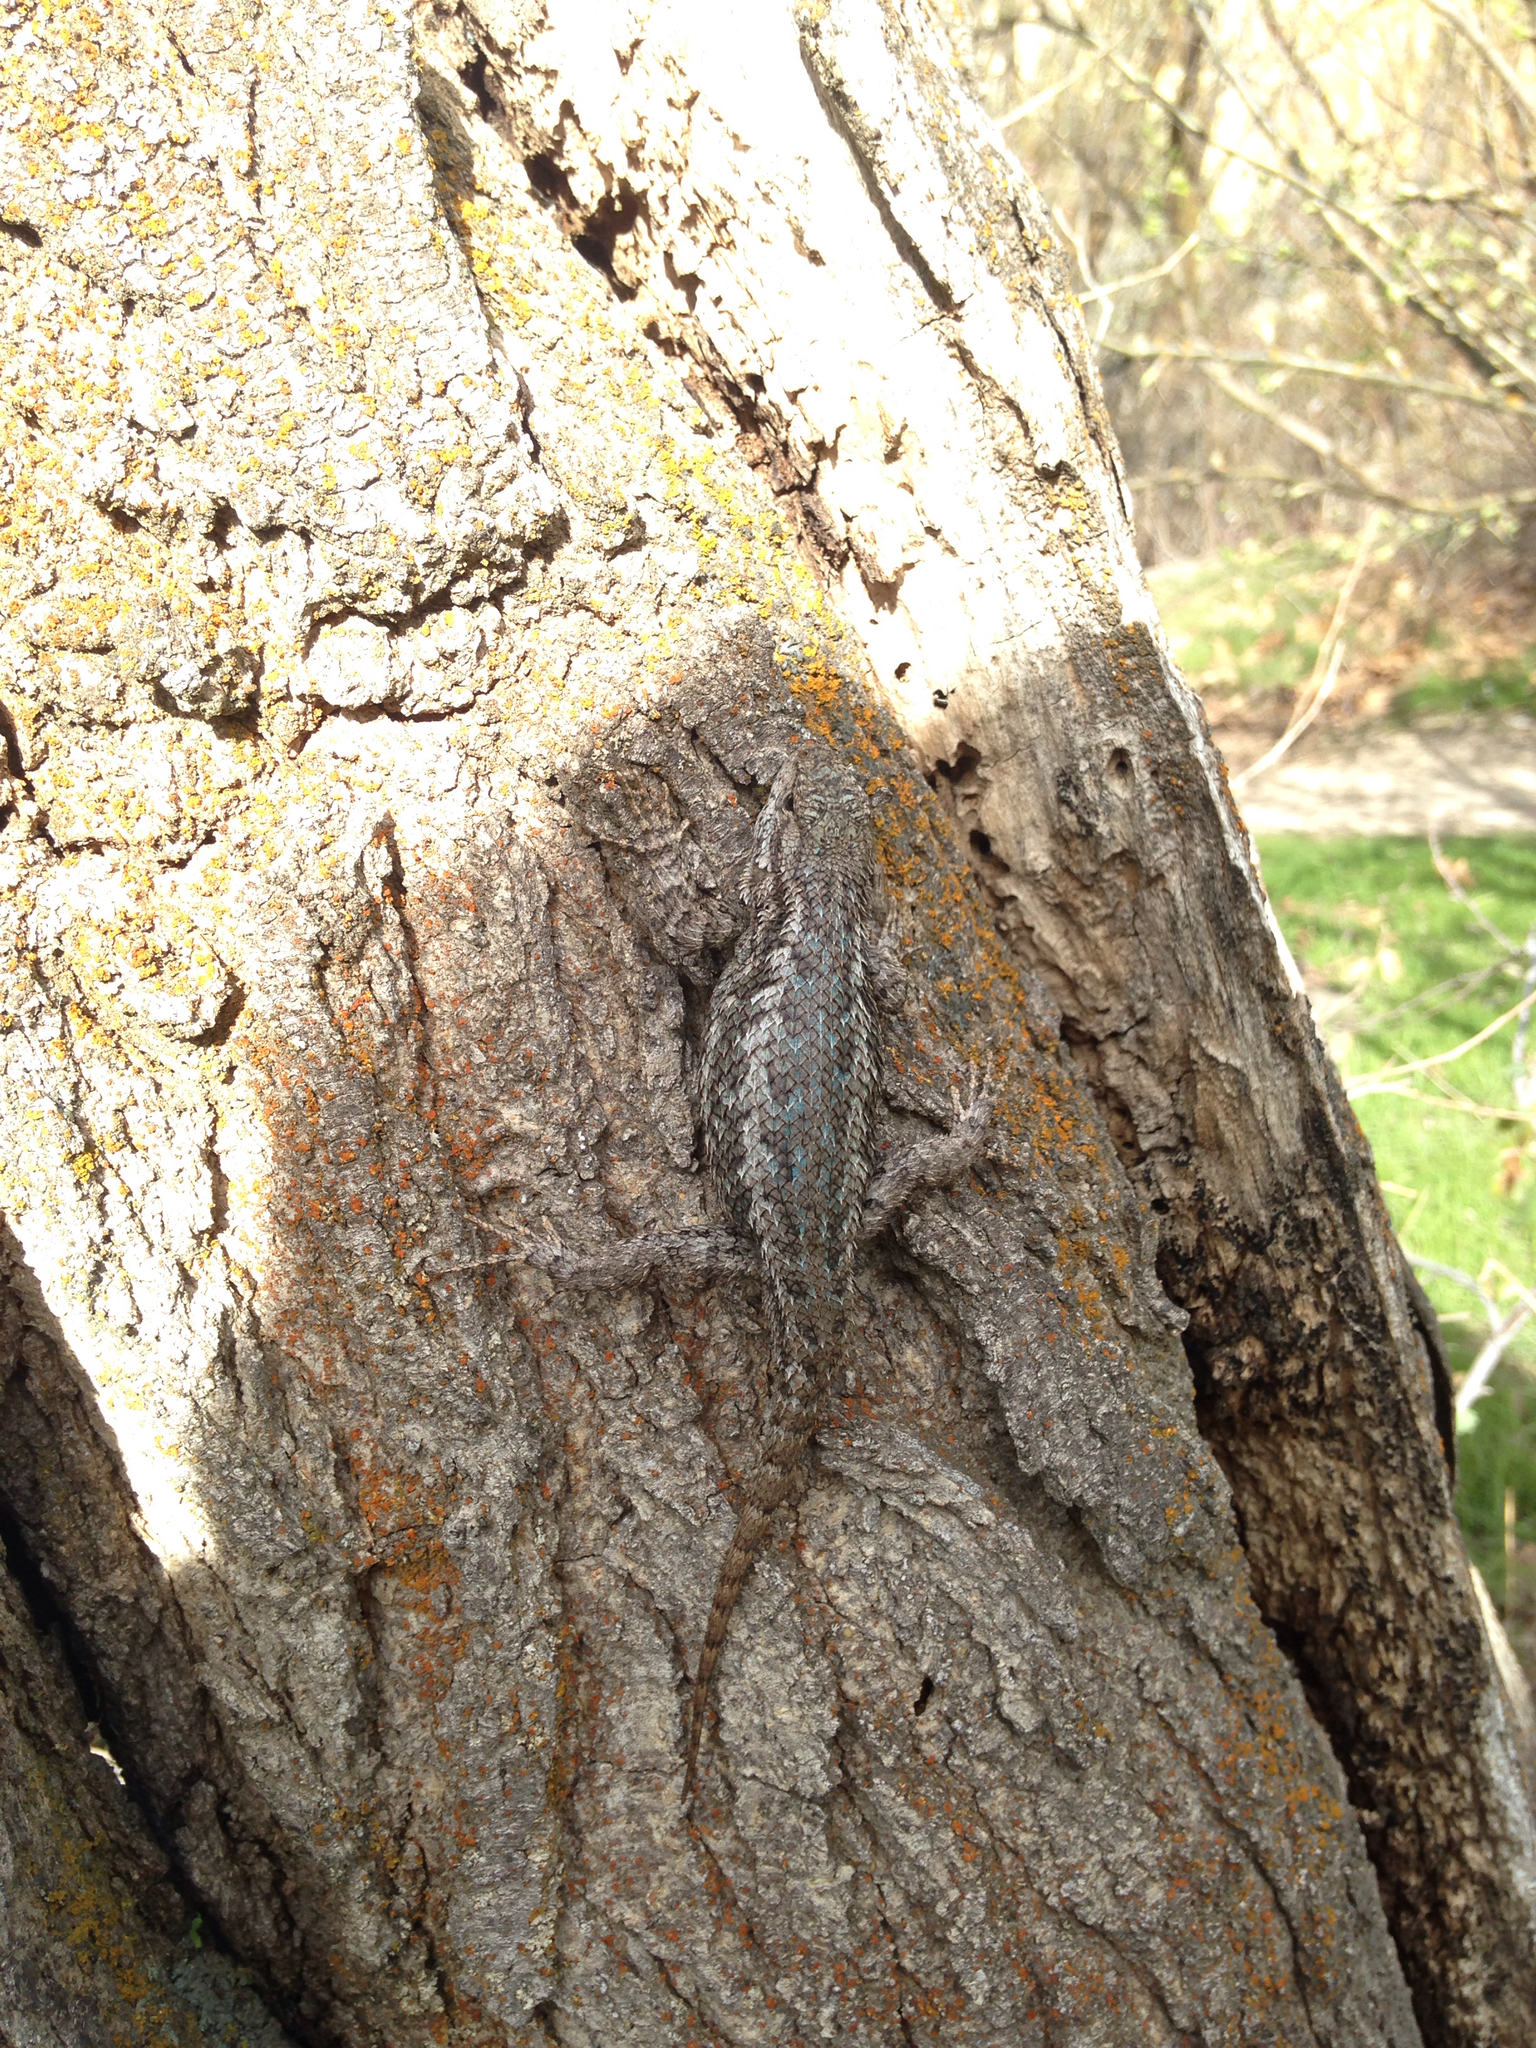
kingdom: Animalia
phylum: Chordata
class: Squamata
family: Phrynosomatidae
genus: Sceloporus
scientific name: Sceloporus occidentalis
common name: Western fence lizard
